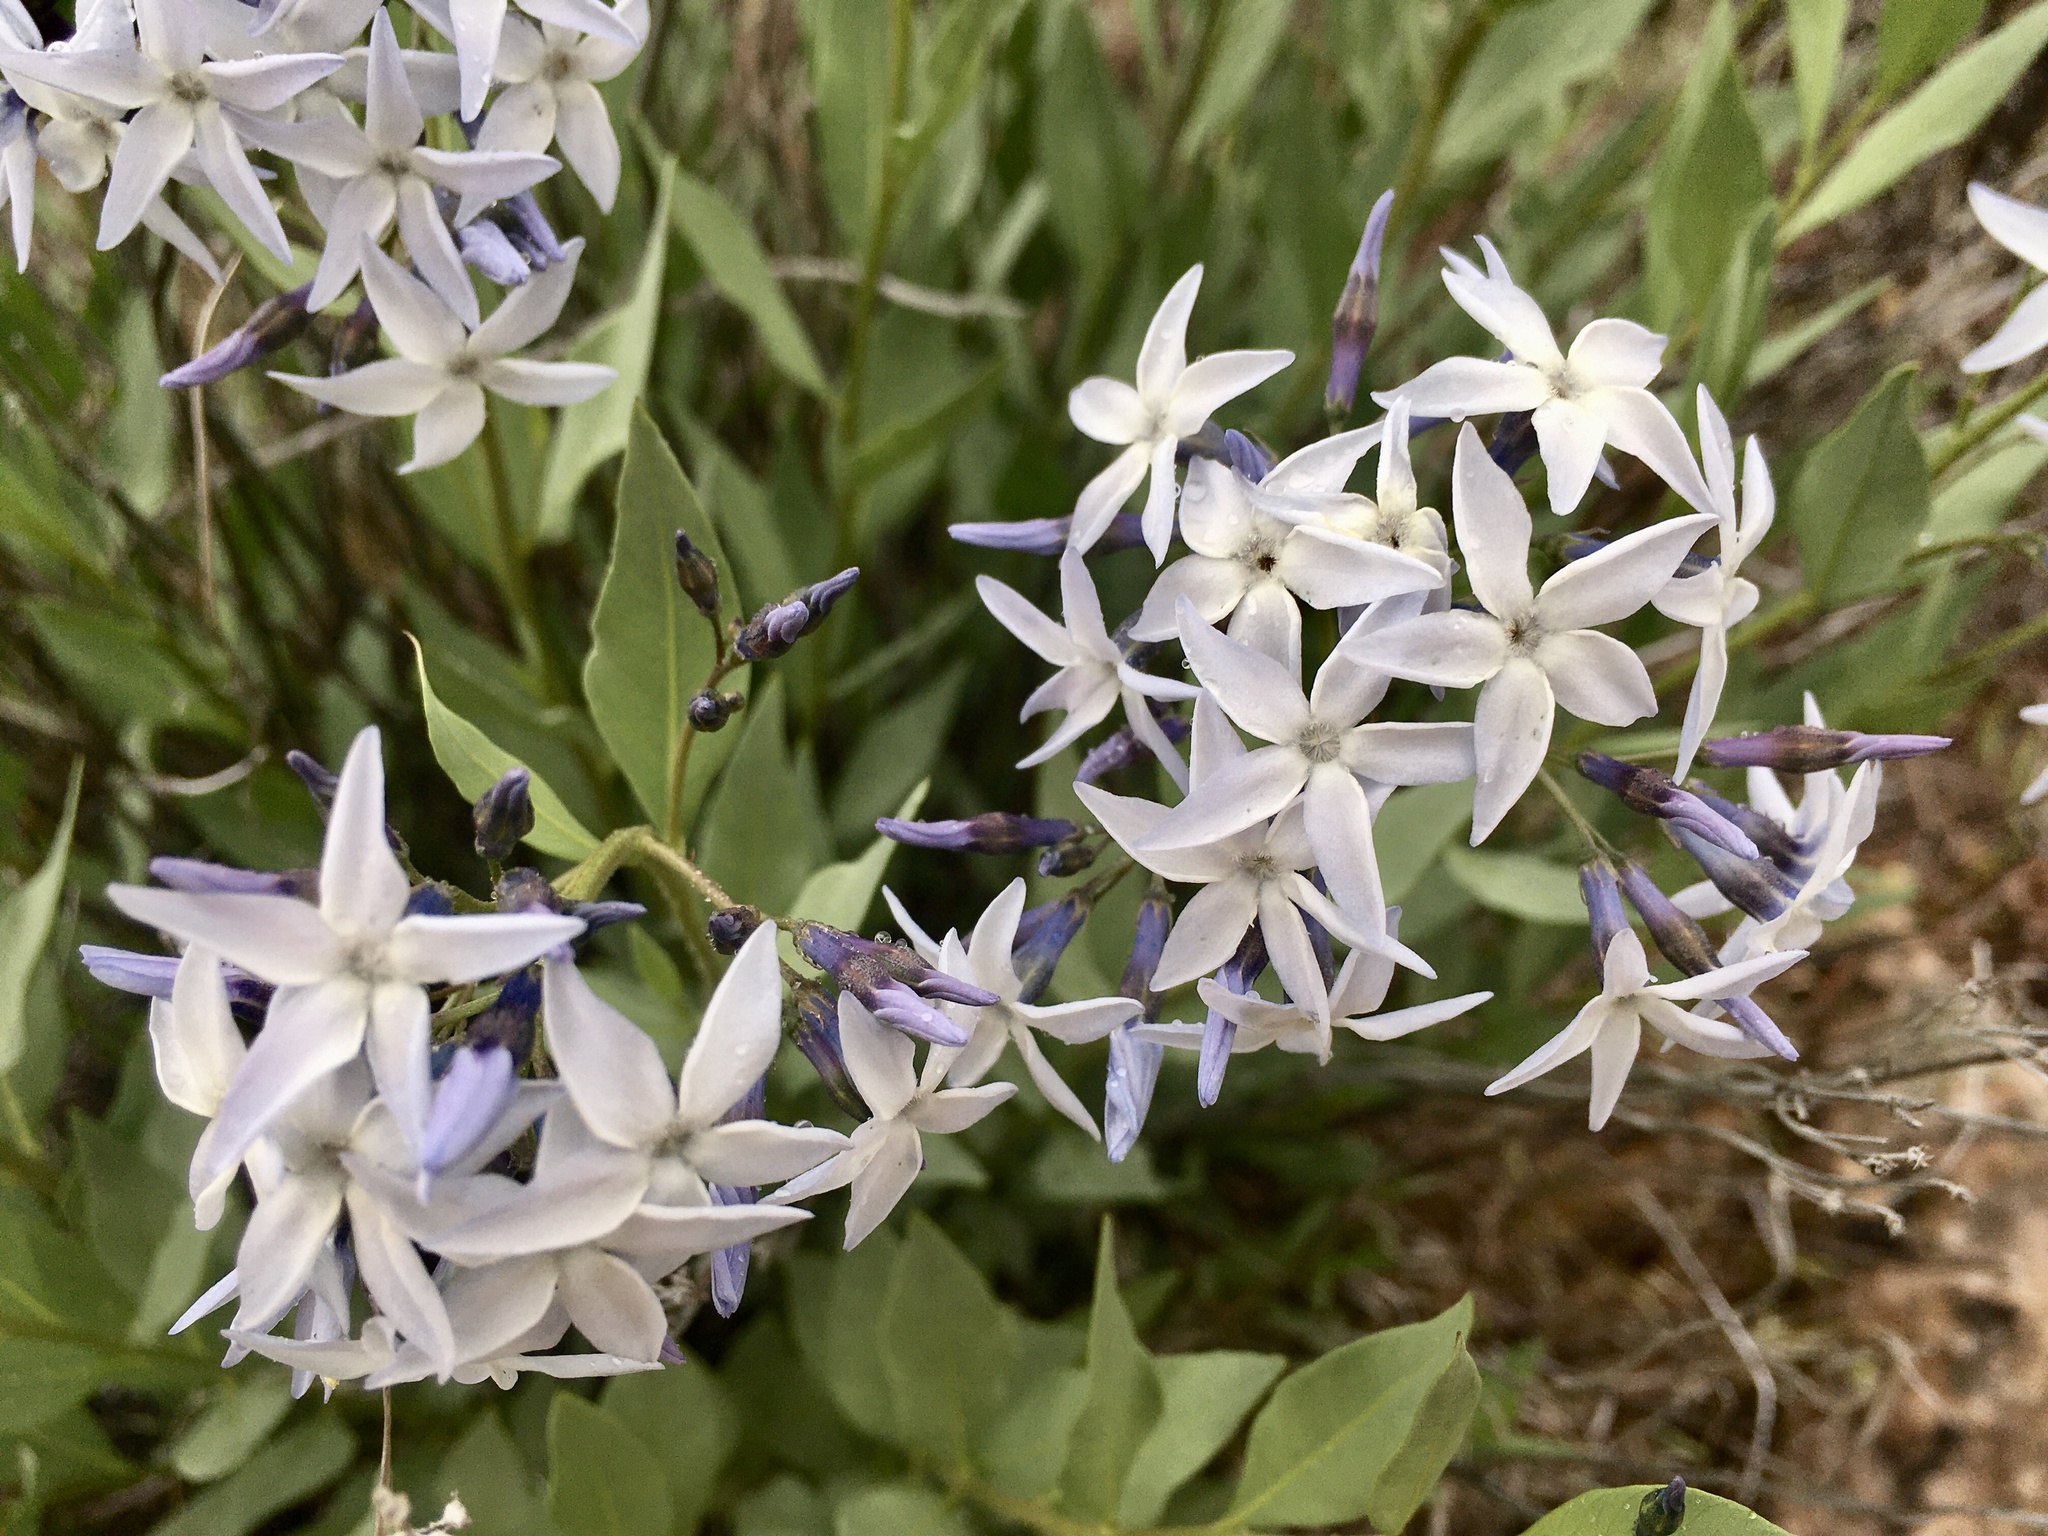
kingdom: Plantae
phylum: Tracheophyta
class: Magnoliopsida
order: Gentianales
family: Apocynaceae
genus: Amsonia
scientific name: Amsonia jonesii
